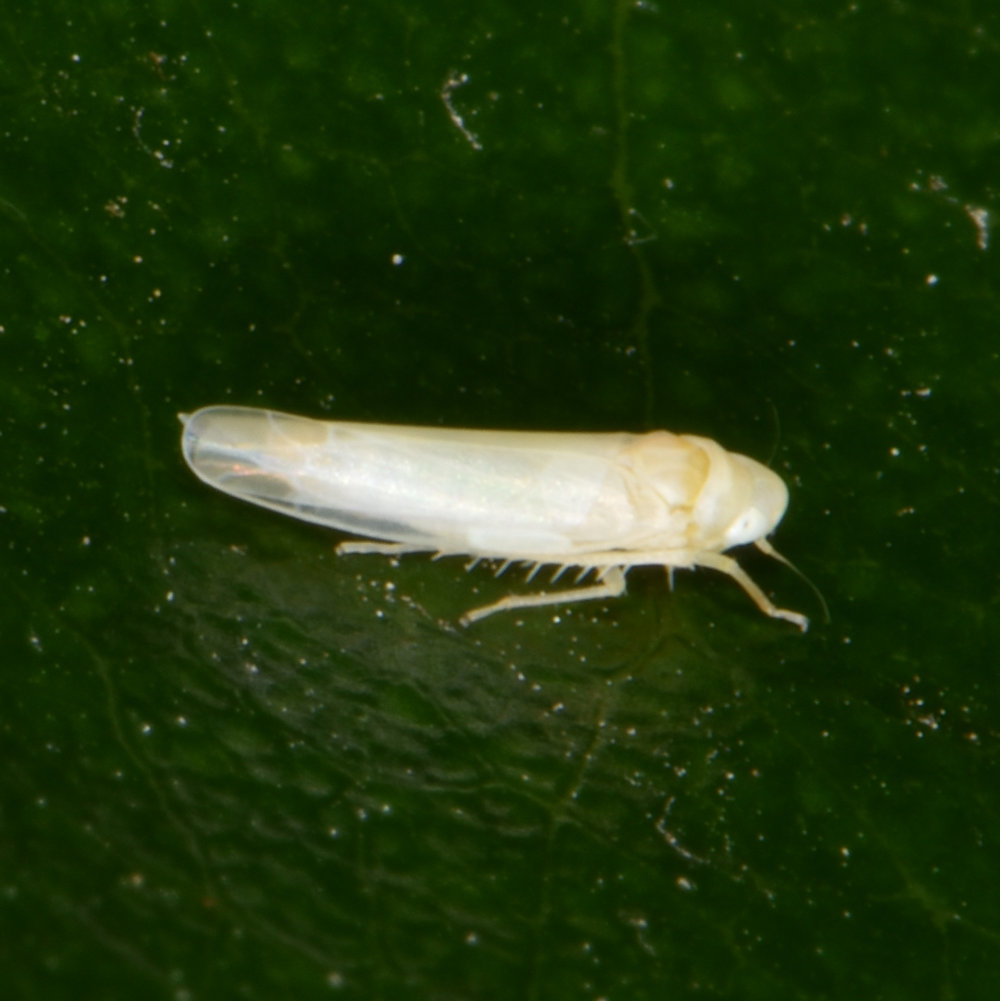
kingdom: Animalia
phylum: Arthropoda
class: Insecta
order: Hemiptera
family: Cicadellidae
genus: Edwardsiana
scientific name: Edwardsiana rosae
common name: Rose leafhopper
